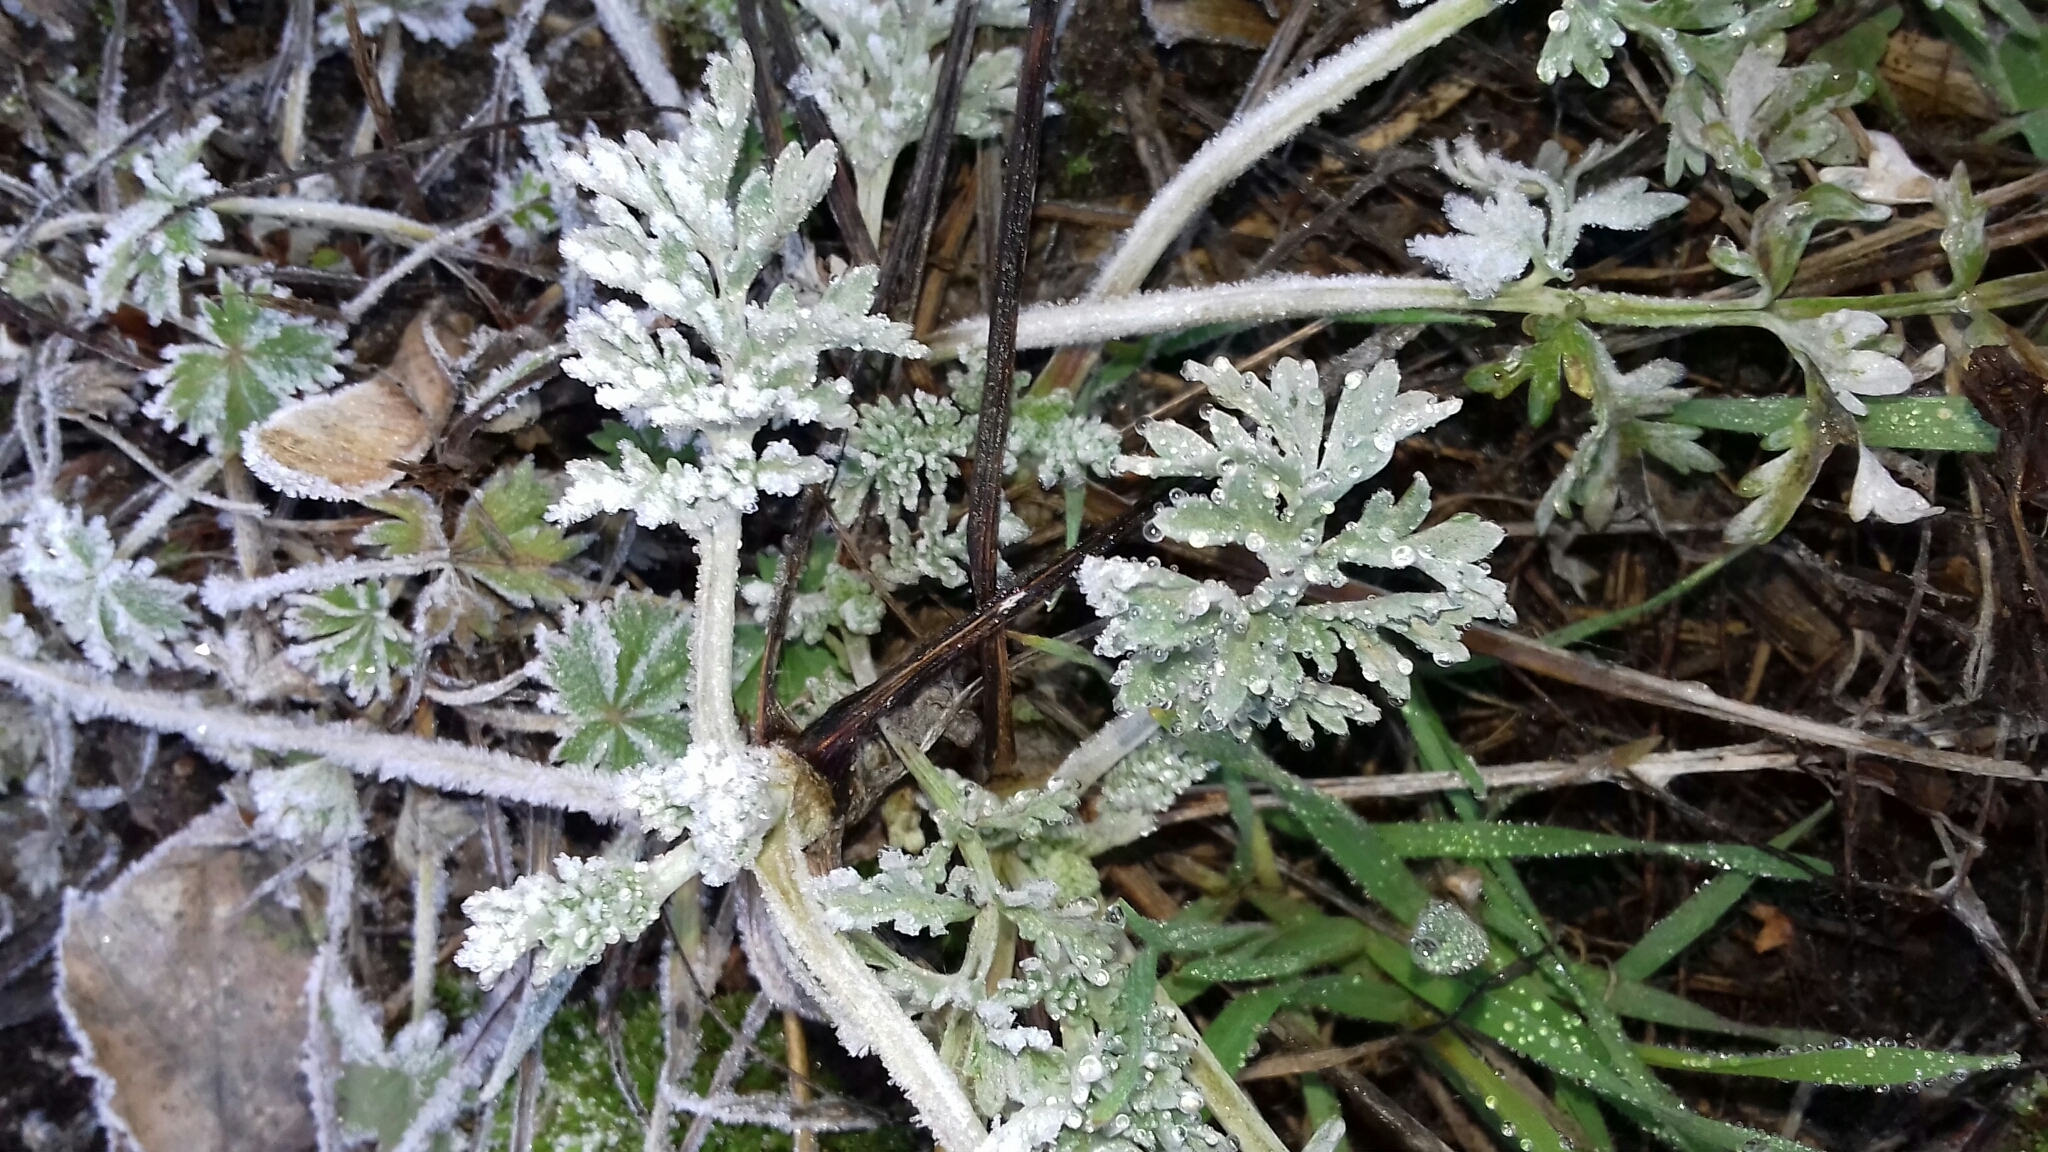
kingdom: Plantae
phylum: Tracheophyta
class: Magnoliopsida
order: Asterales
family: Asteraceae
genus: Artemisia
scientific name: Artemisia absinthium
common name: Wormwood
